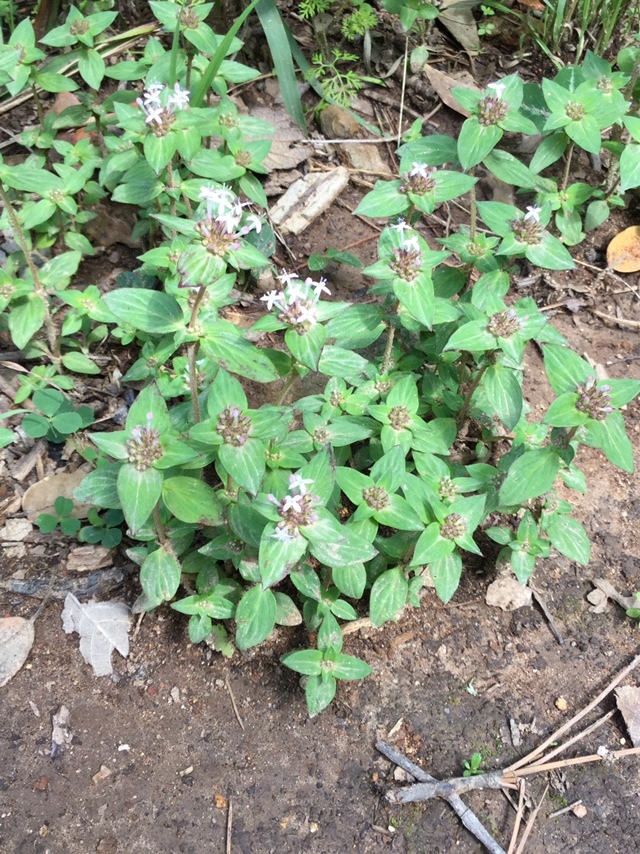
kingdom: Plantae
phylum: Tracheophyta
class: Magnoliopsida
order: Gentianales
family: Rubiaceae
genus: Crusea
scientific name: Crusea longiflora
